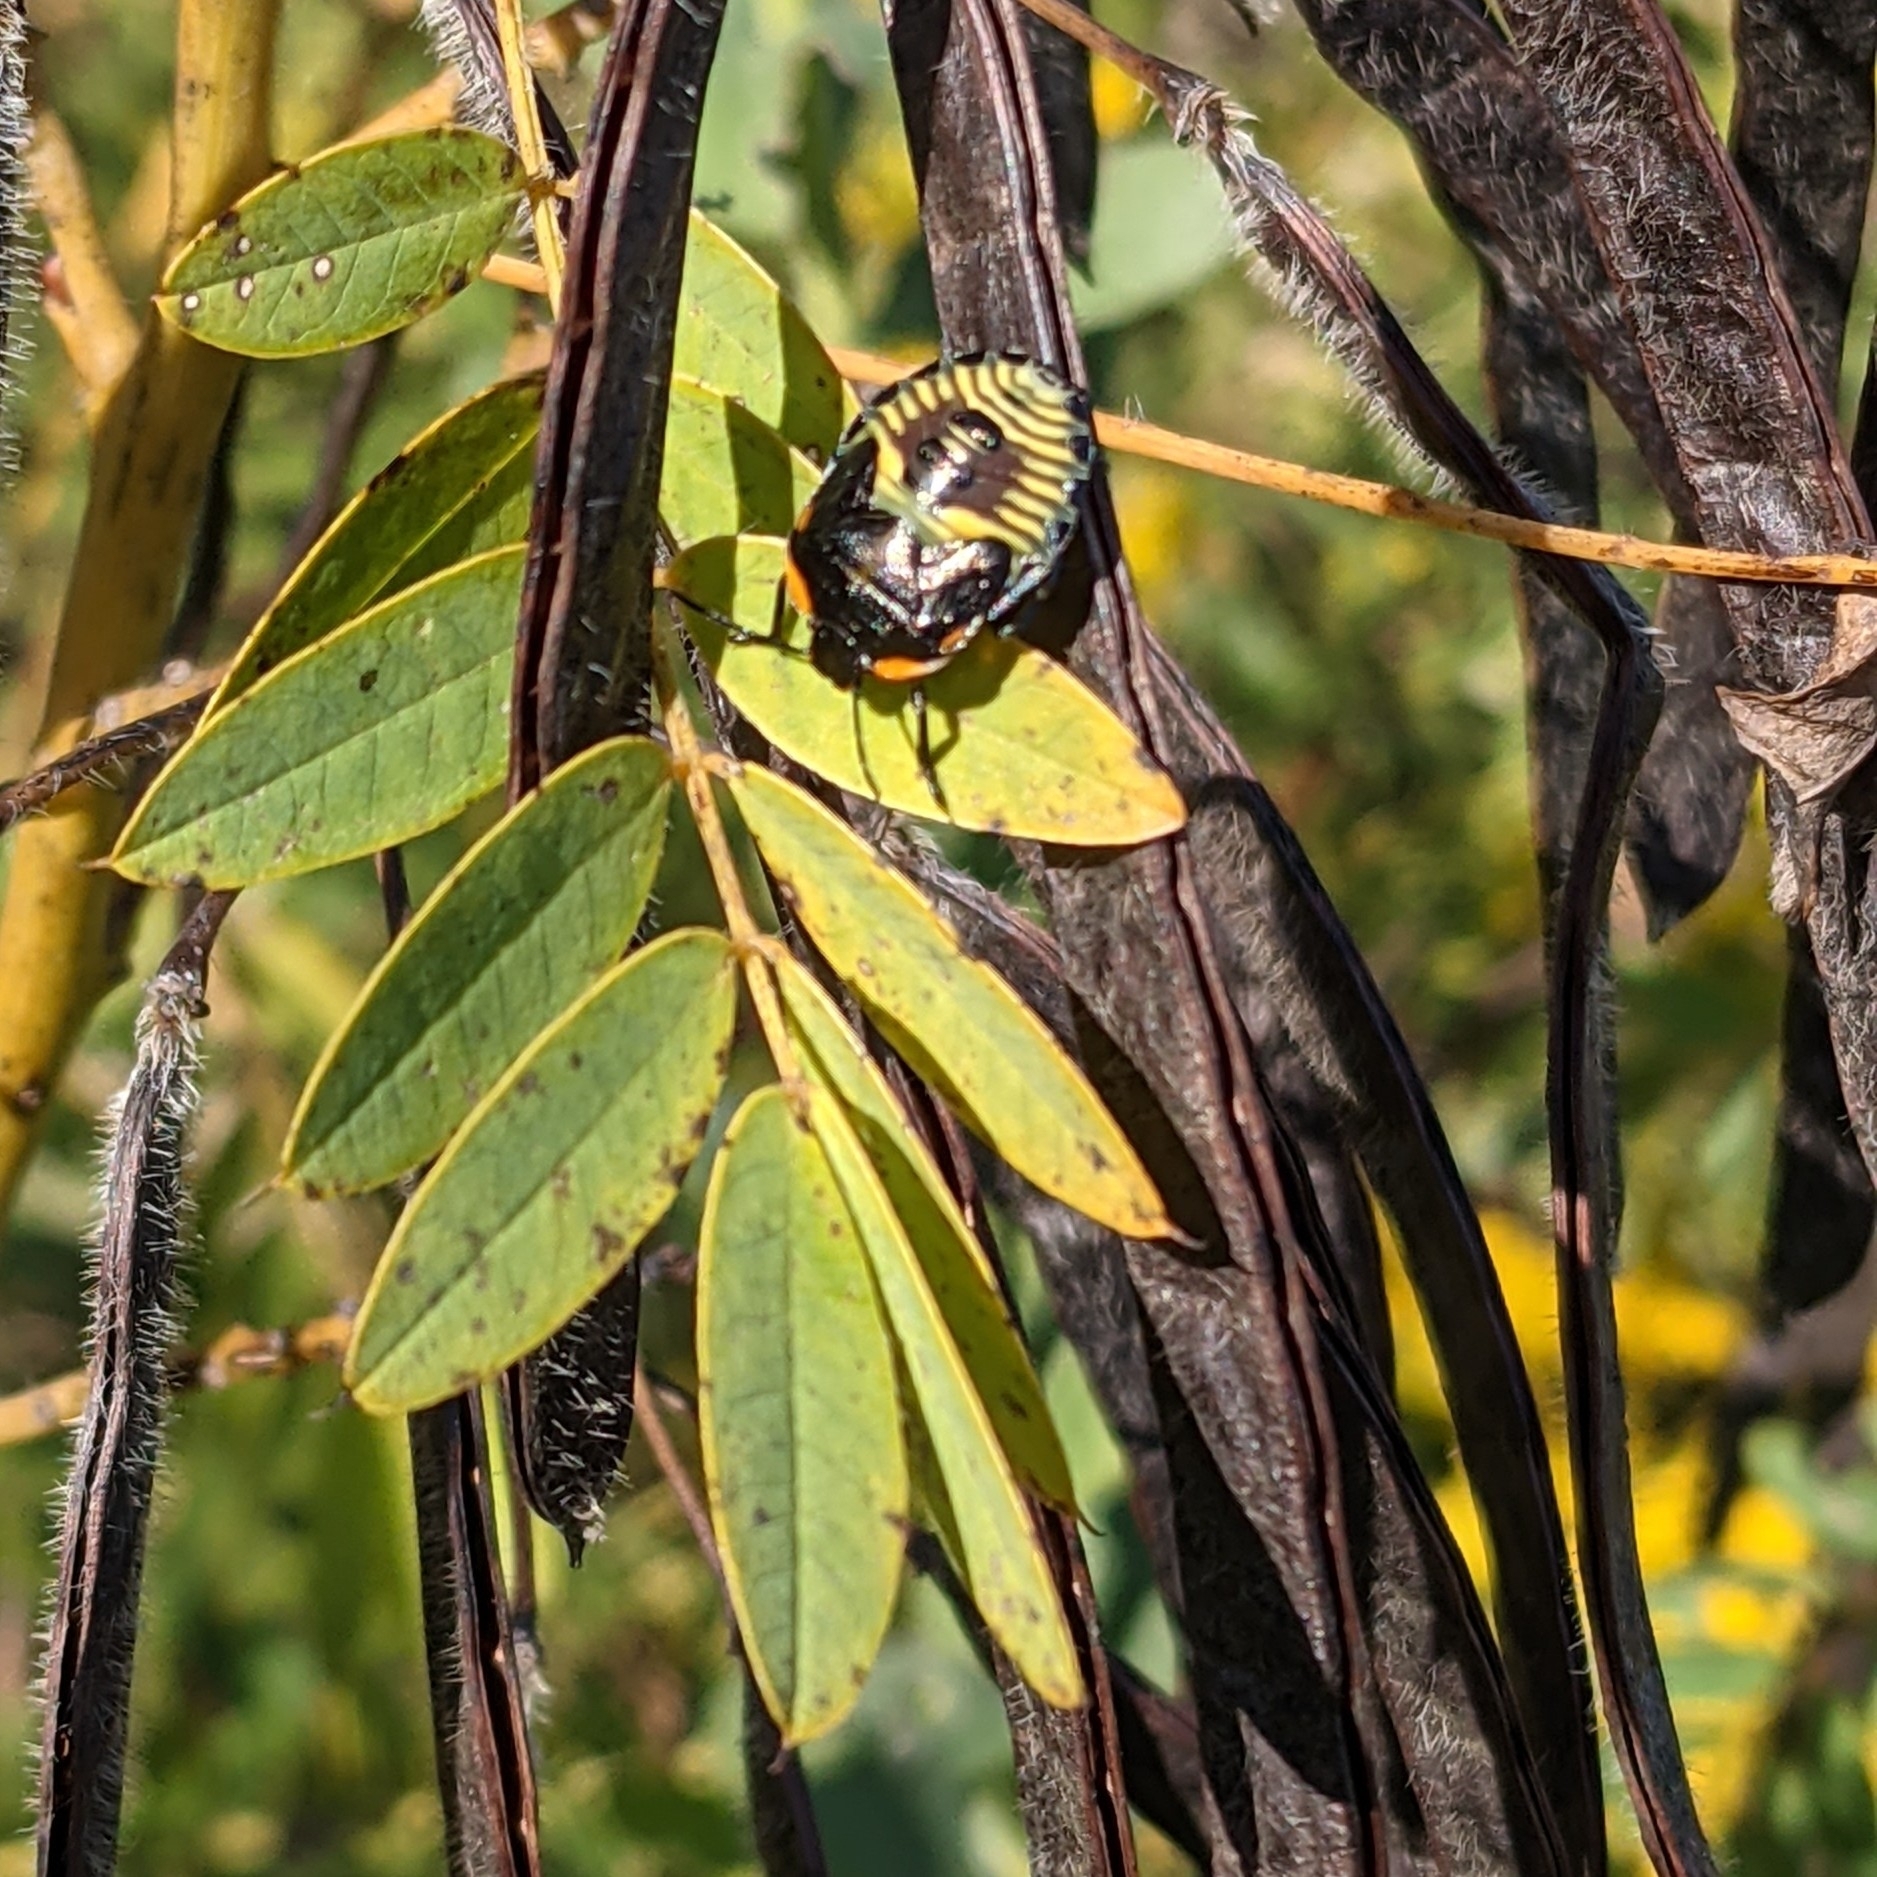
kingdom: Animalia
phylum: Arthropoda
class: Insecta
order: Hemiptera
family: Pentatomidae
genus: Chinavia
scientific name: Chinavia hilaris
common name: Green stink bug
